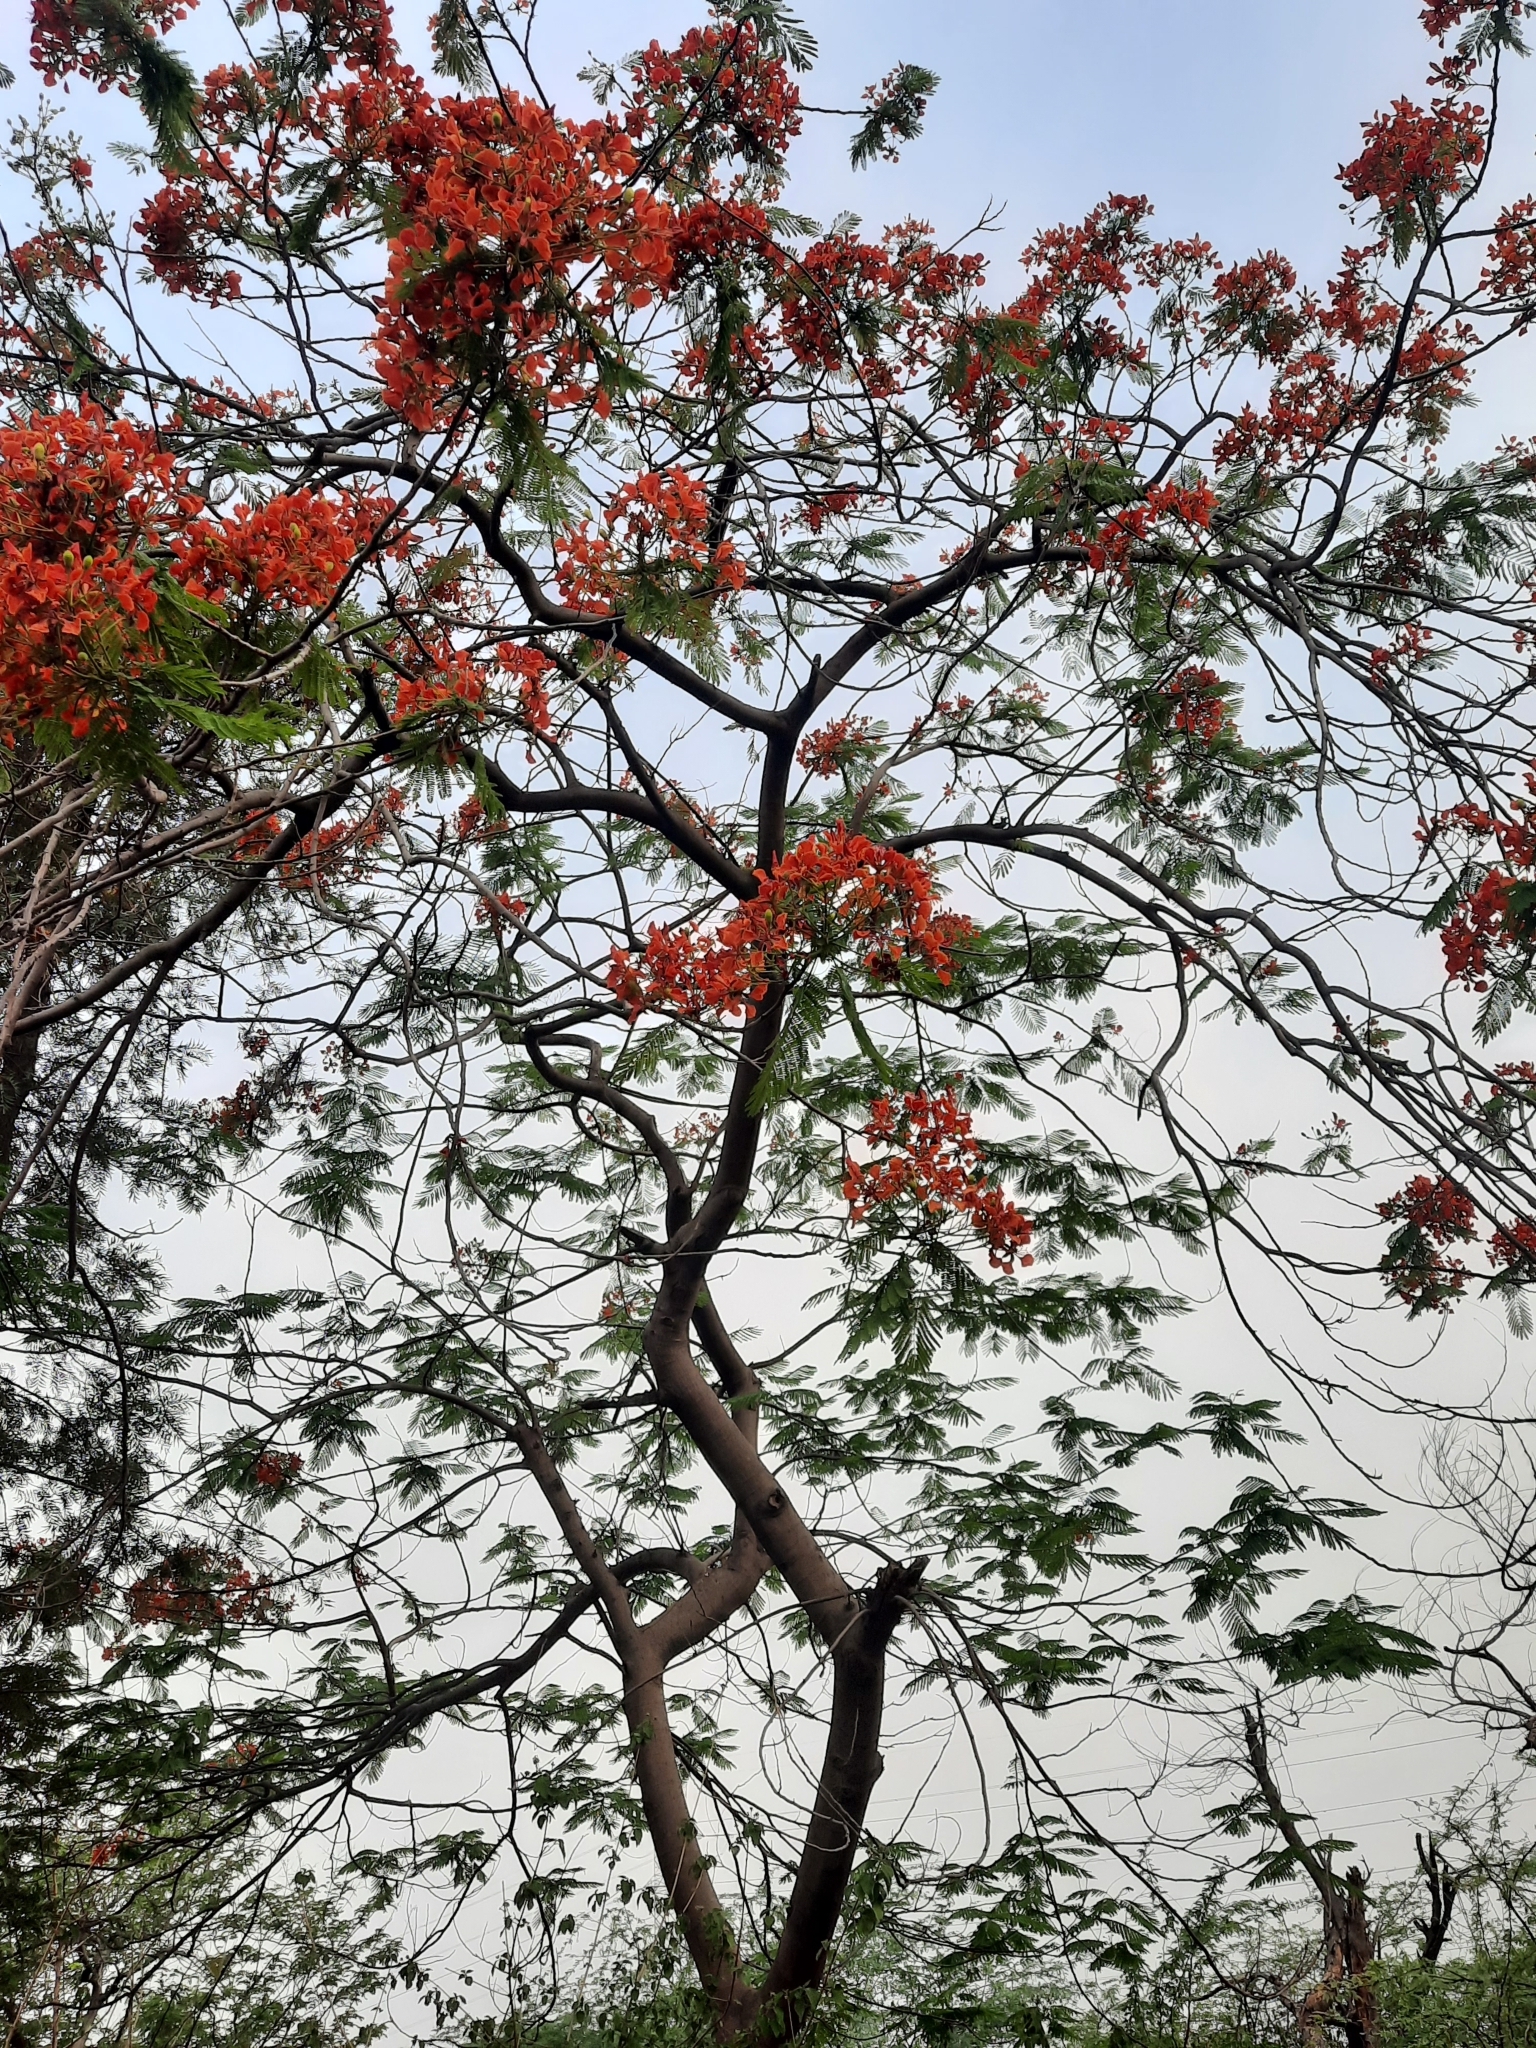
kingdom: Plantae
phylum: Tracheophyta
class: Magnoliopsida
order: Fabales
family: Fabaceae
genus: Delonix
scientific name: Delonix regia
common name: Royal poinciana
